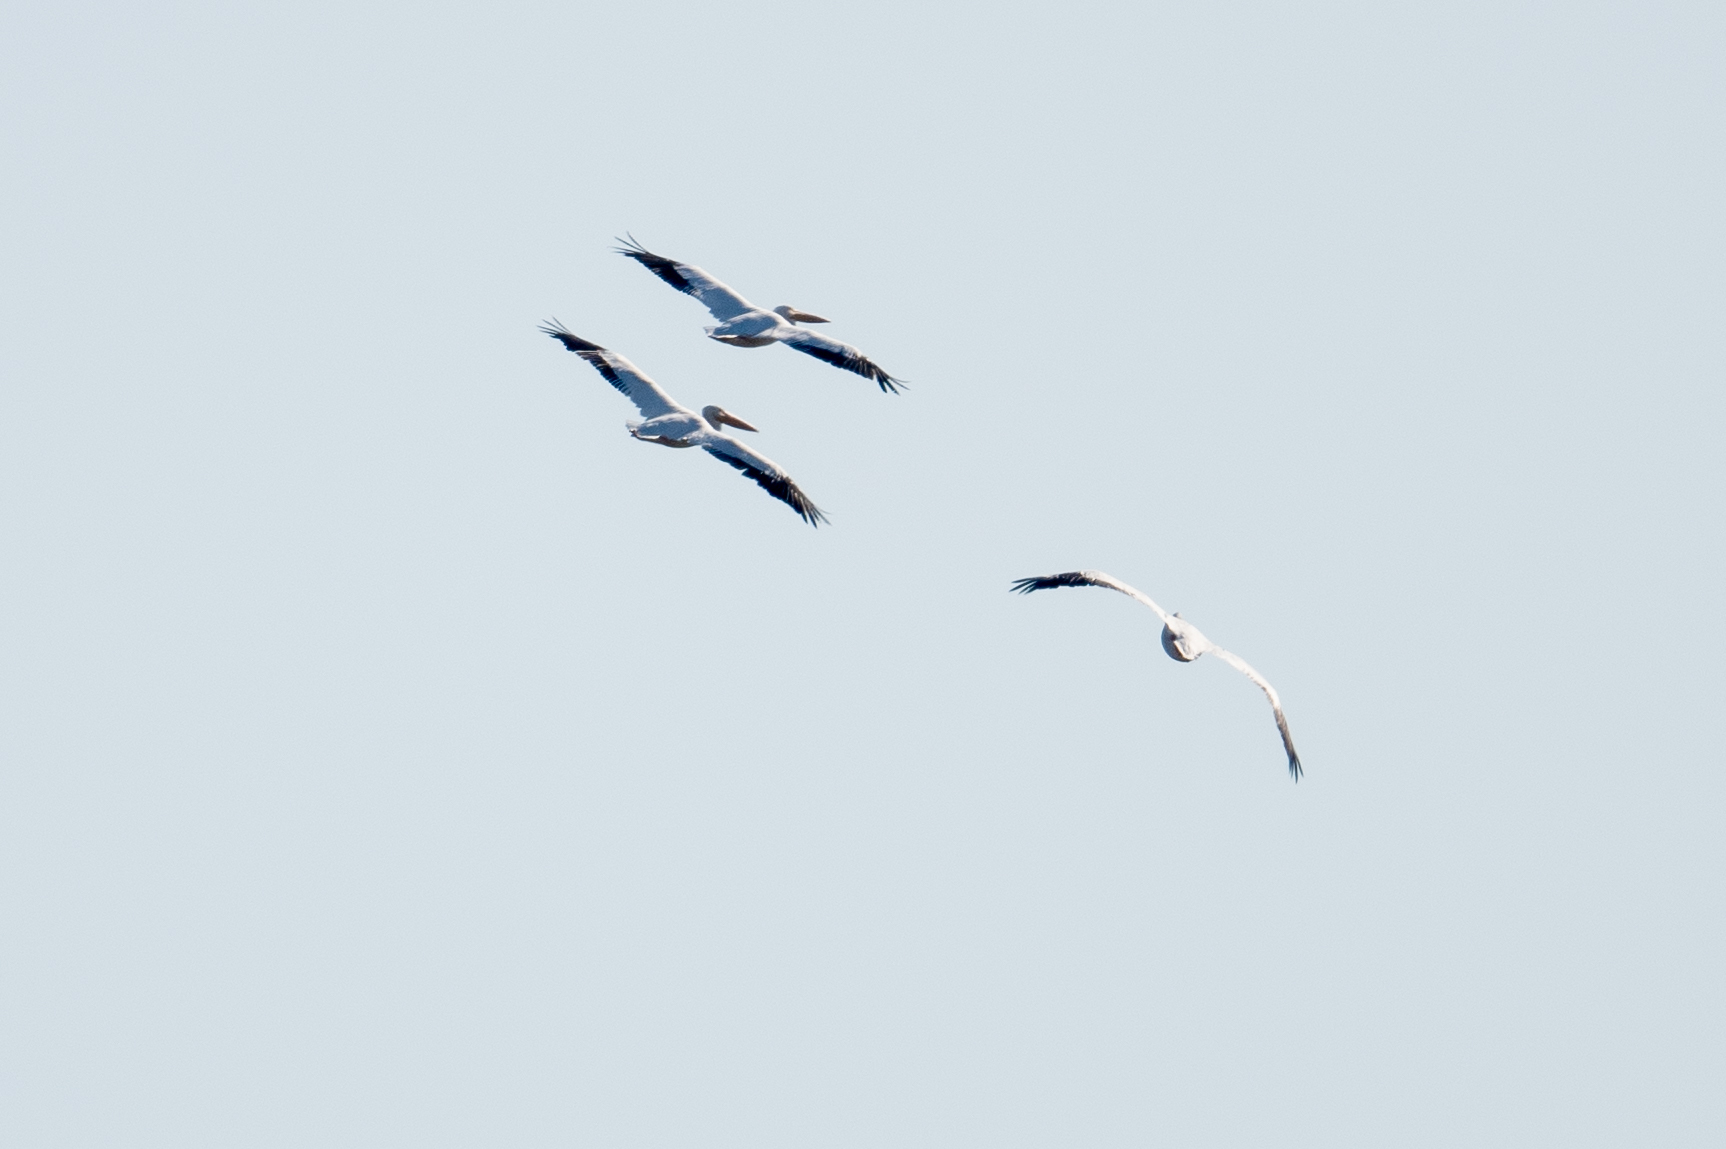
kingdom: Animalia
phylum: Chordata
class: Aves
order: Pelecaniformes
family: Pelecanidae
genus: Pelecanus
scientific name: Pelecanus erythrorhynchos
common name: American white pelican
